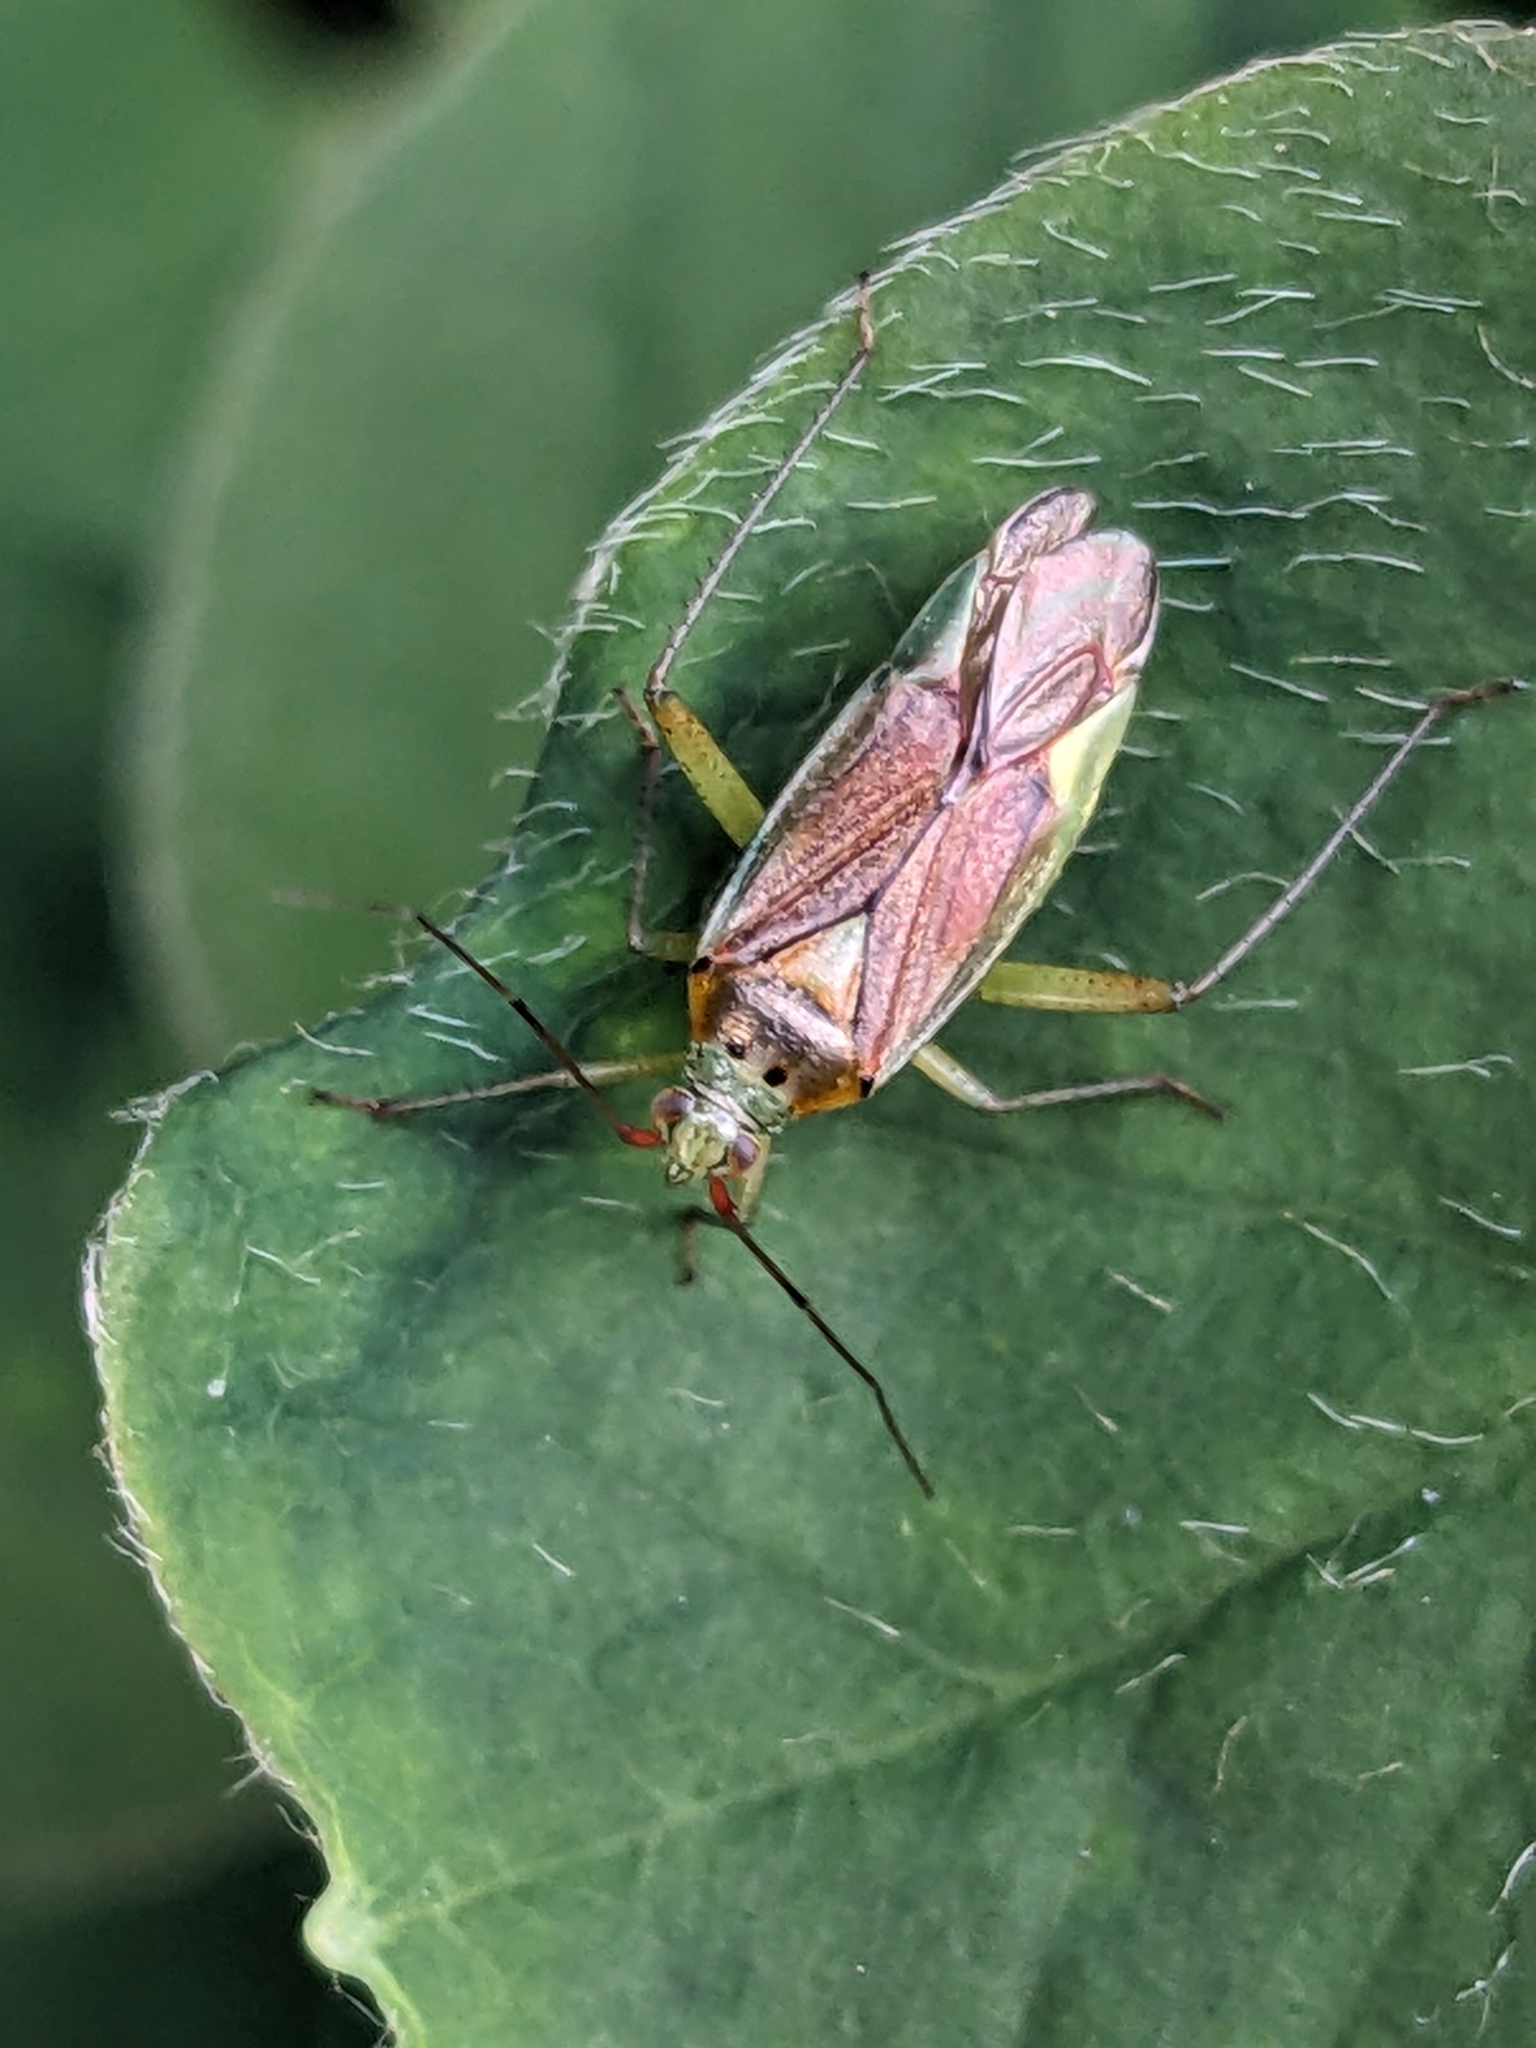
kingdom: Animalia
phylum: Arthropoda
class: Insecta
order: Hemiptera
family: Miridae
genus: Closterotomus
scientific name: Closterotomus trivialis
